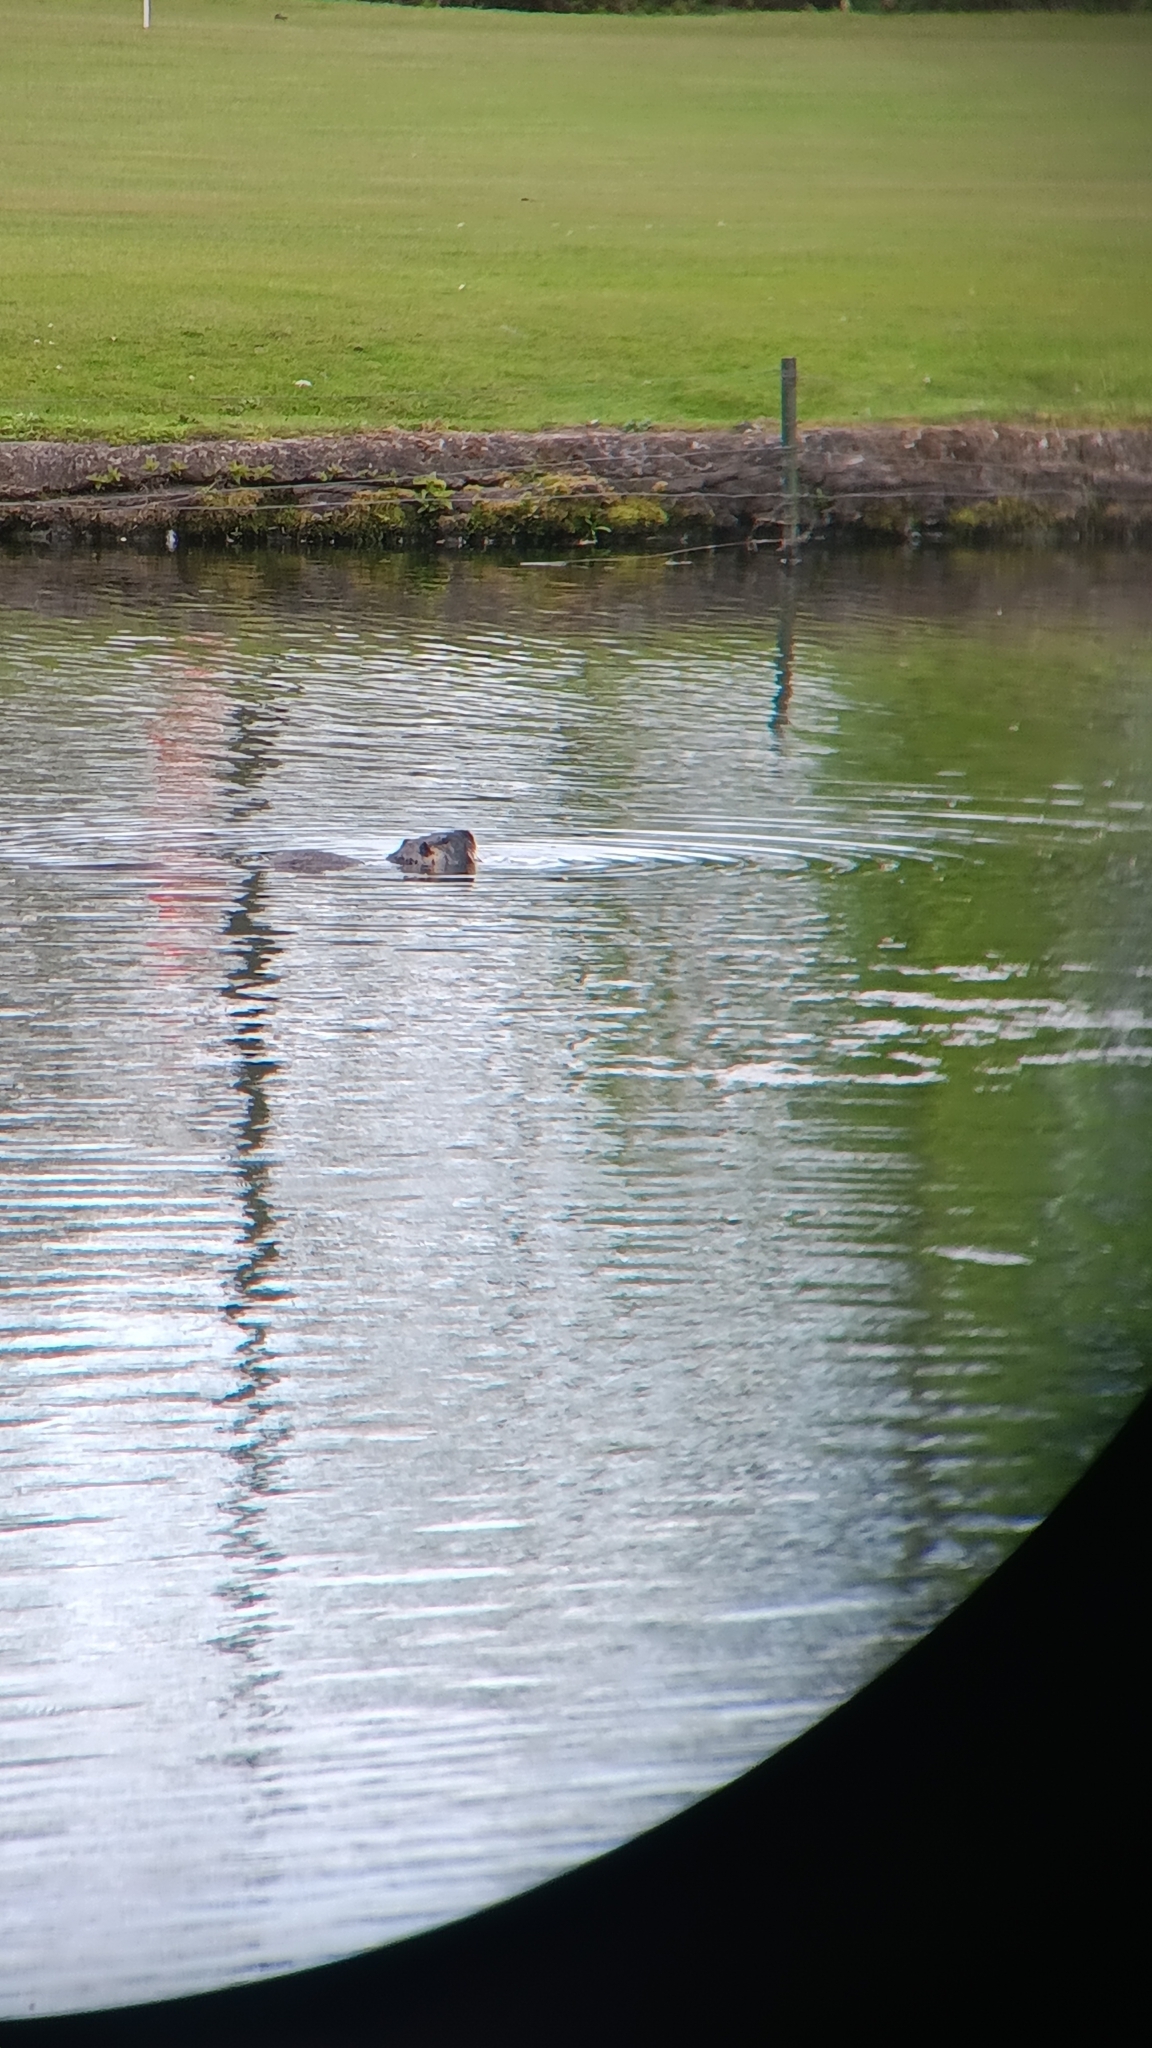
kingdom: Animalia
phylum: Chordata
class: Mammalia
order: Rodentia
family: Myocastoridae
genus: Myocastor
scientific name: Myocastor coypus
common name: Coypu
